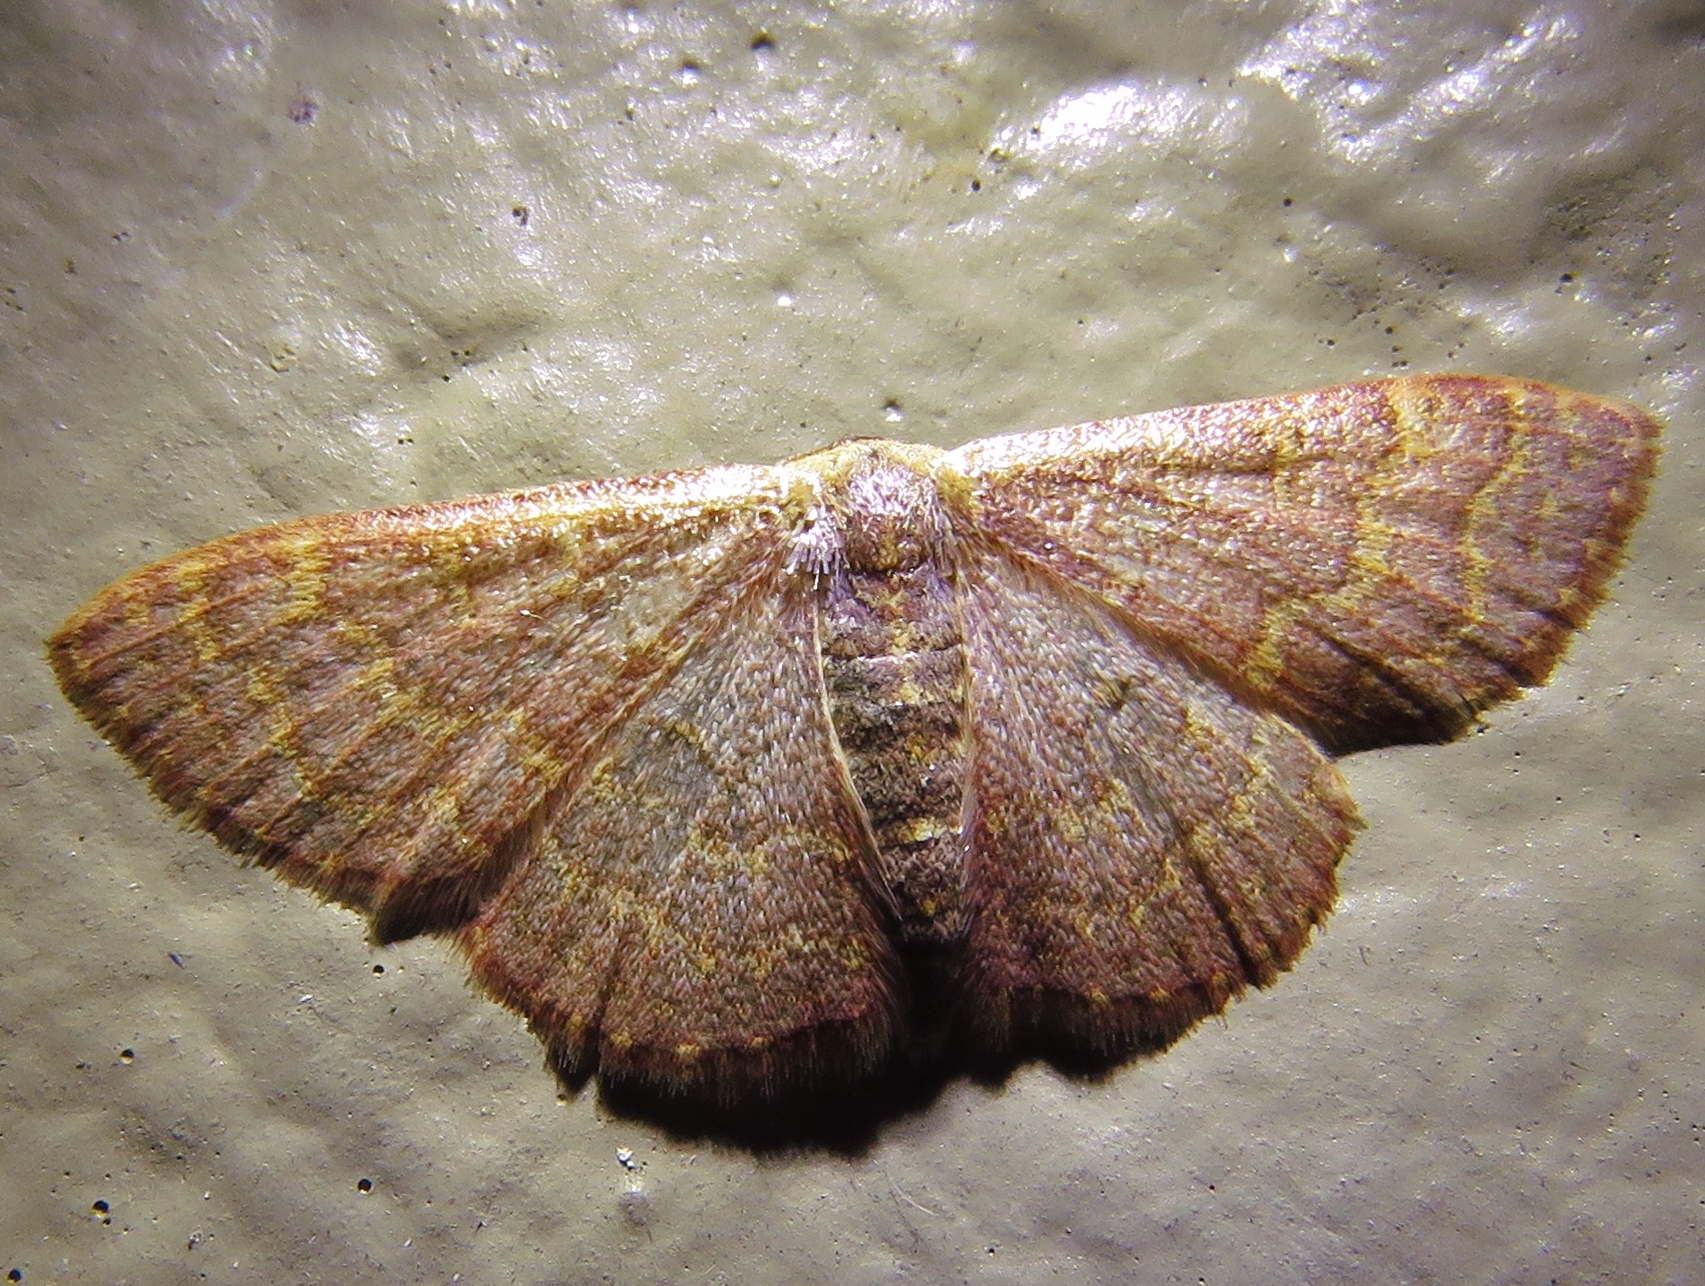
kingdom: Animalia
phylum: Arthropoda
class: Insecta
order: Lepidoptera
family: Geometridae
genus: Leptostales
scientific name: Leptostales pannaria
